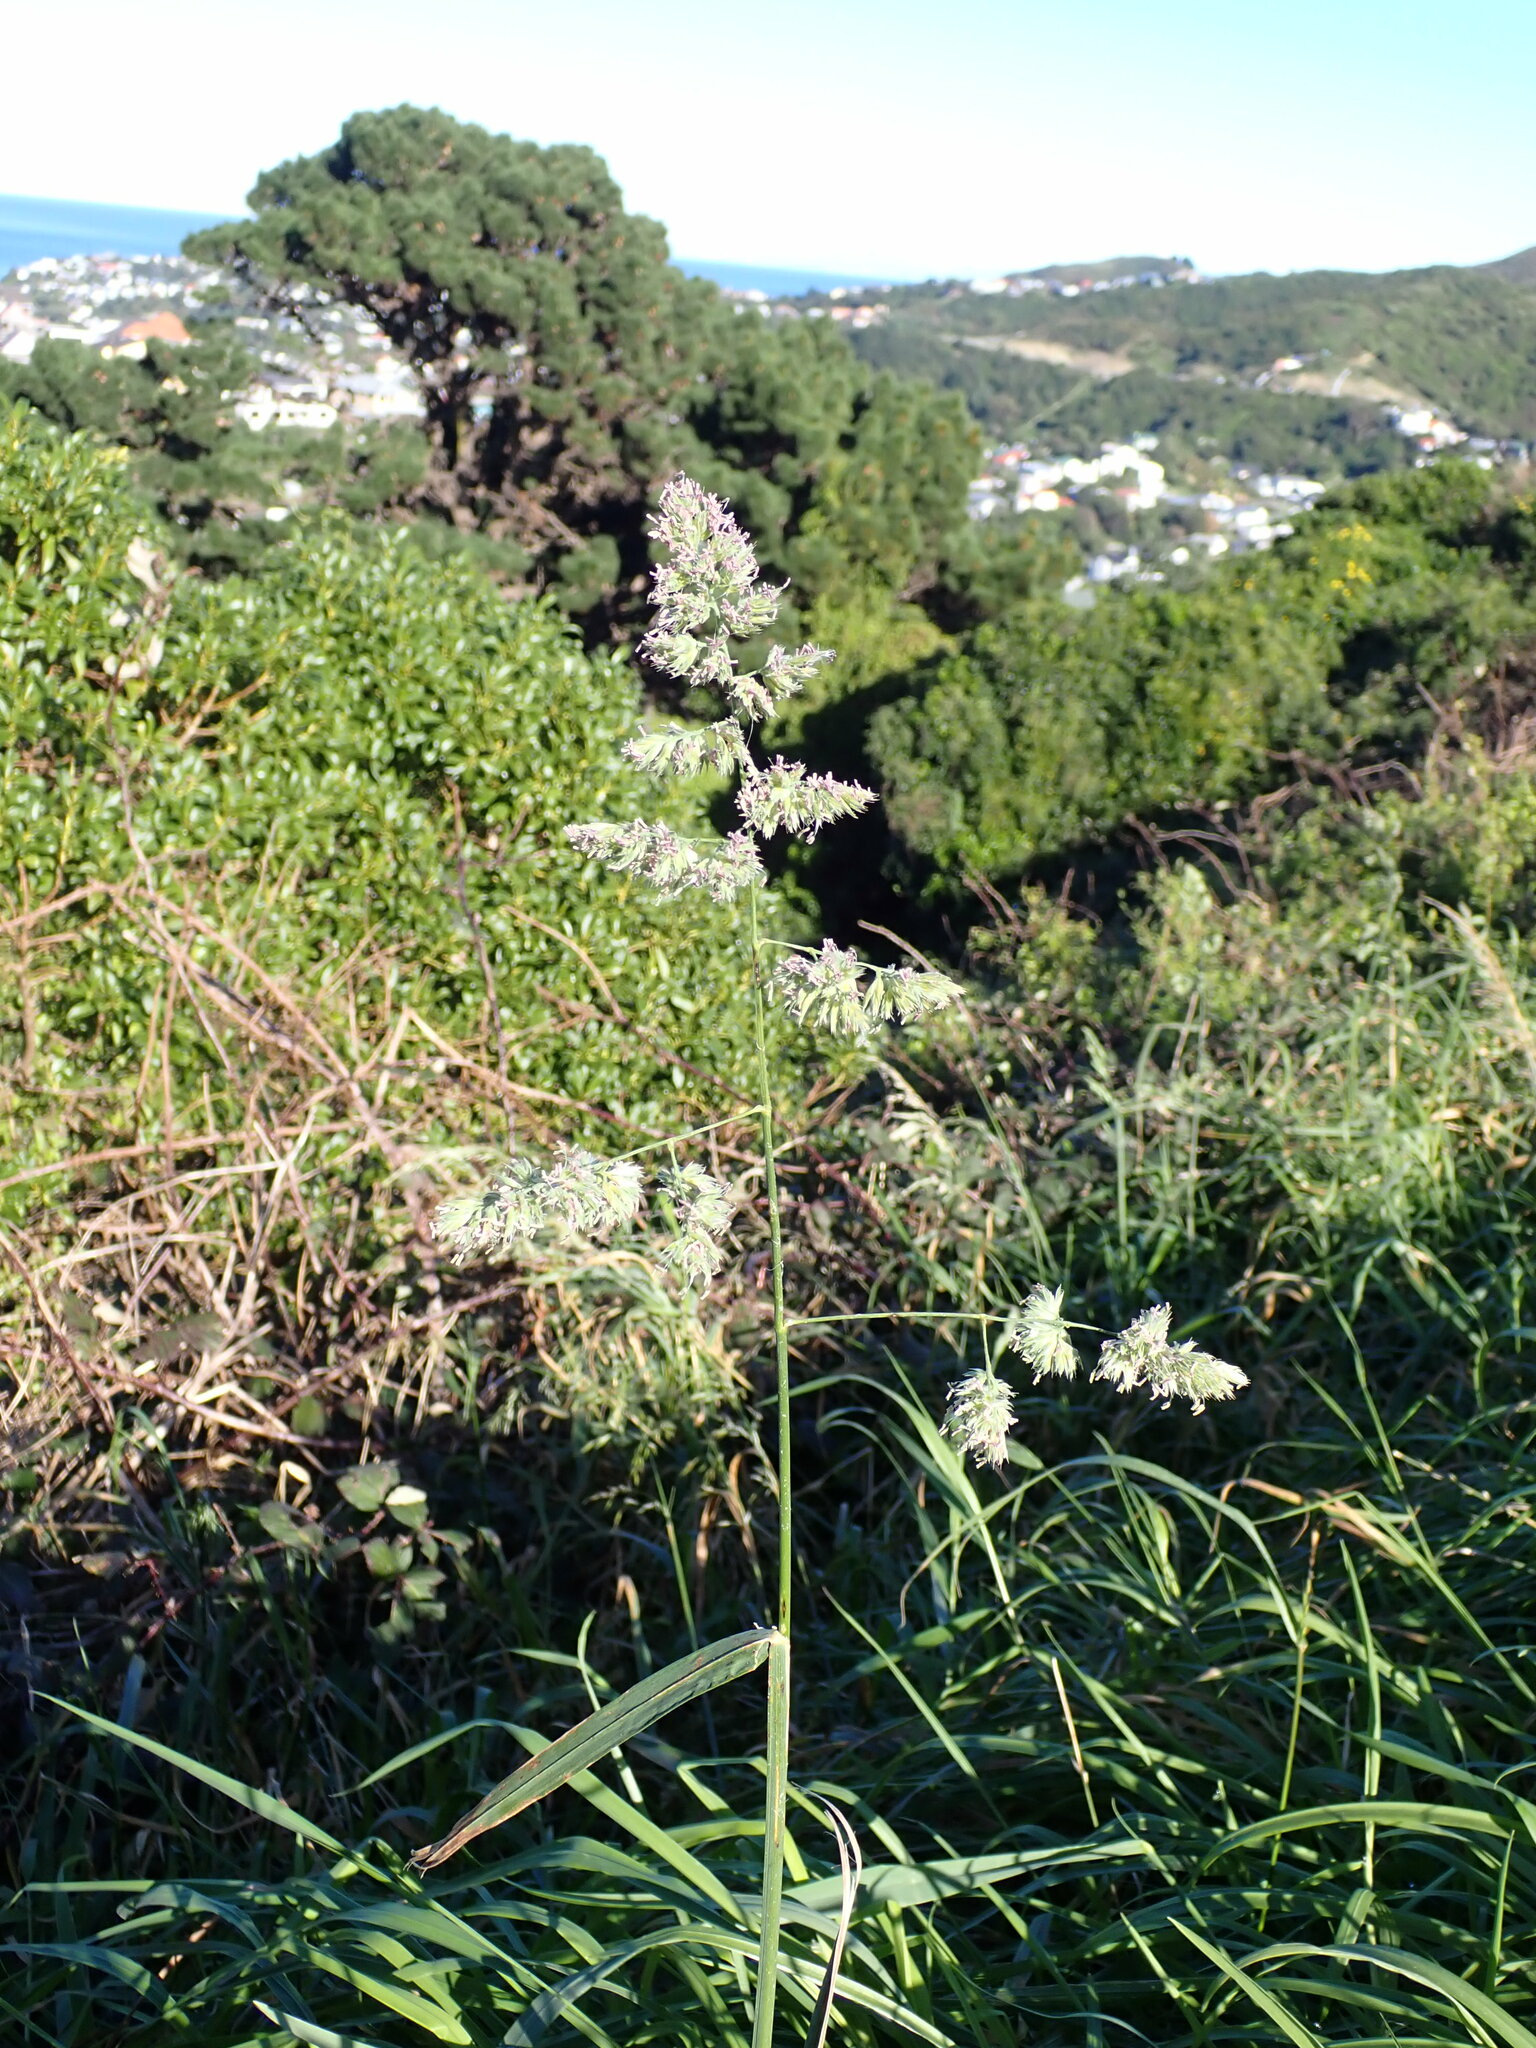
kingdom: Plantae
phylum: Tracheophyta
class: Liliopsida
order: Poales
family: Poaceae
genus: Dactylis
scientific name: Dactylis glomerata
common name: Orchardgrass
